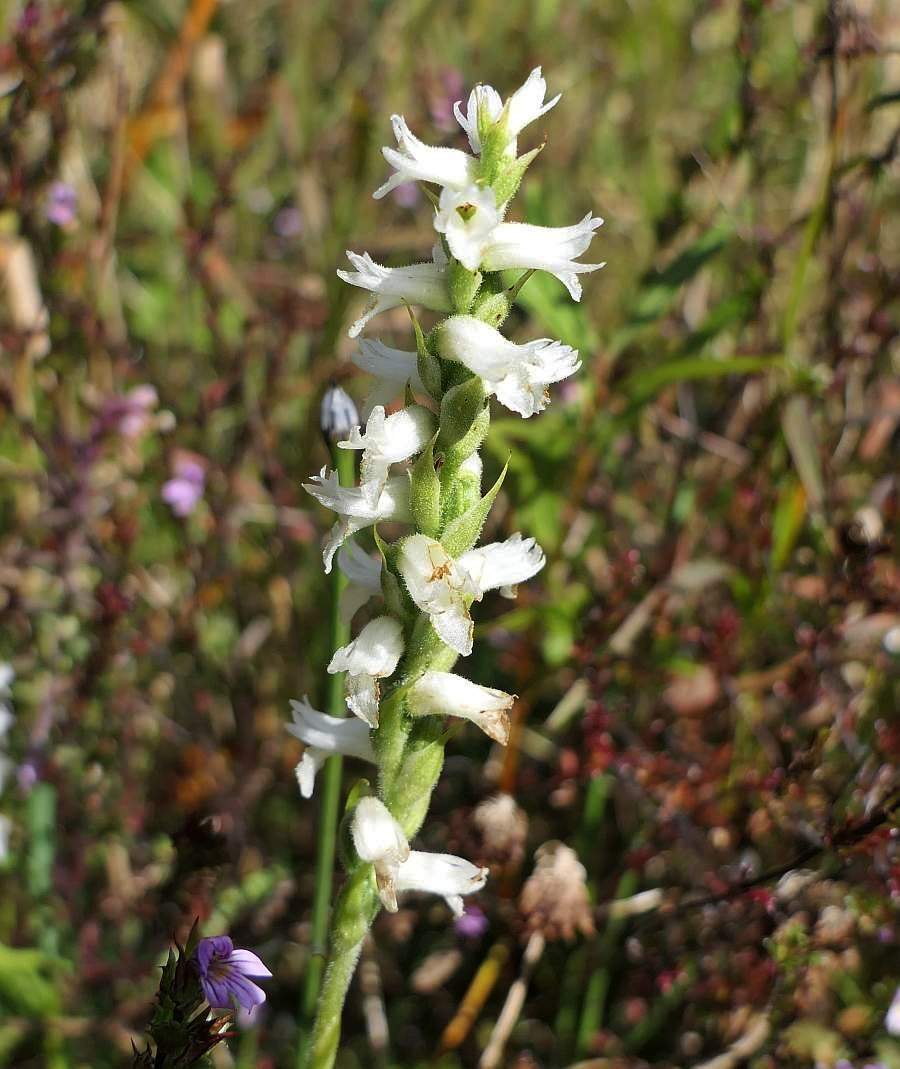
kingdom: Plantae
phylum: Tracheophyta
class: Liliopsida
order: Asparagales
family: Orchidaceae
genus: Spiranthes
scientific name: Spiranthes incurva
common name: Sphinx ladies'-tresses
